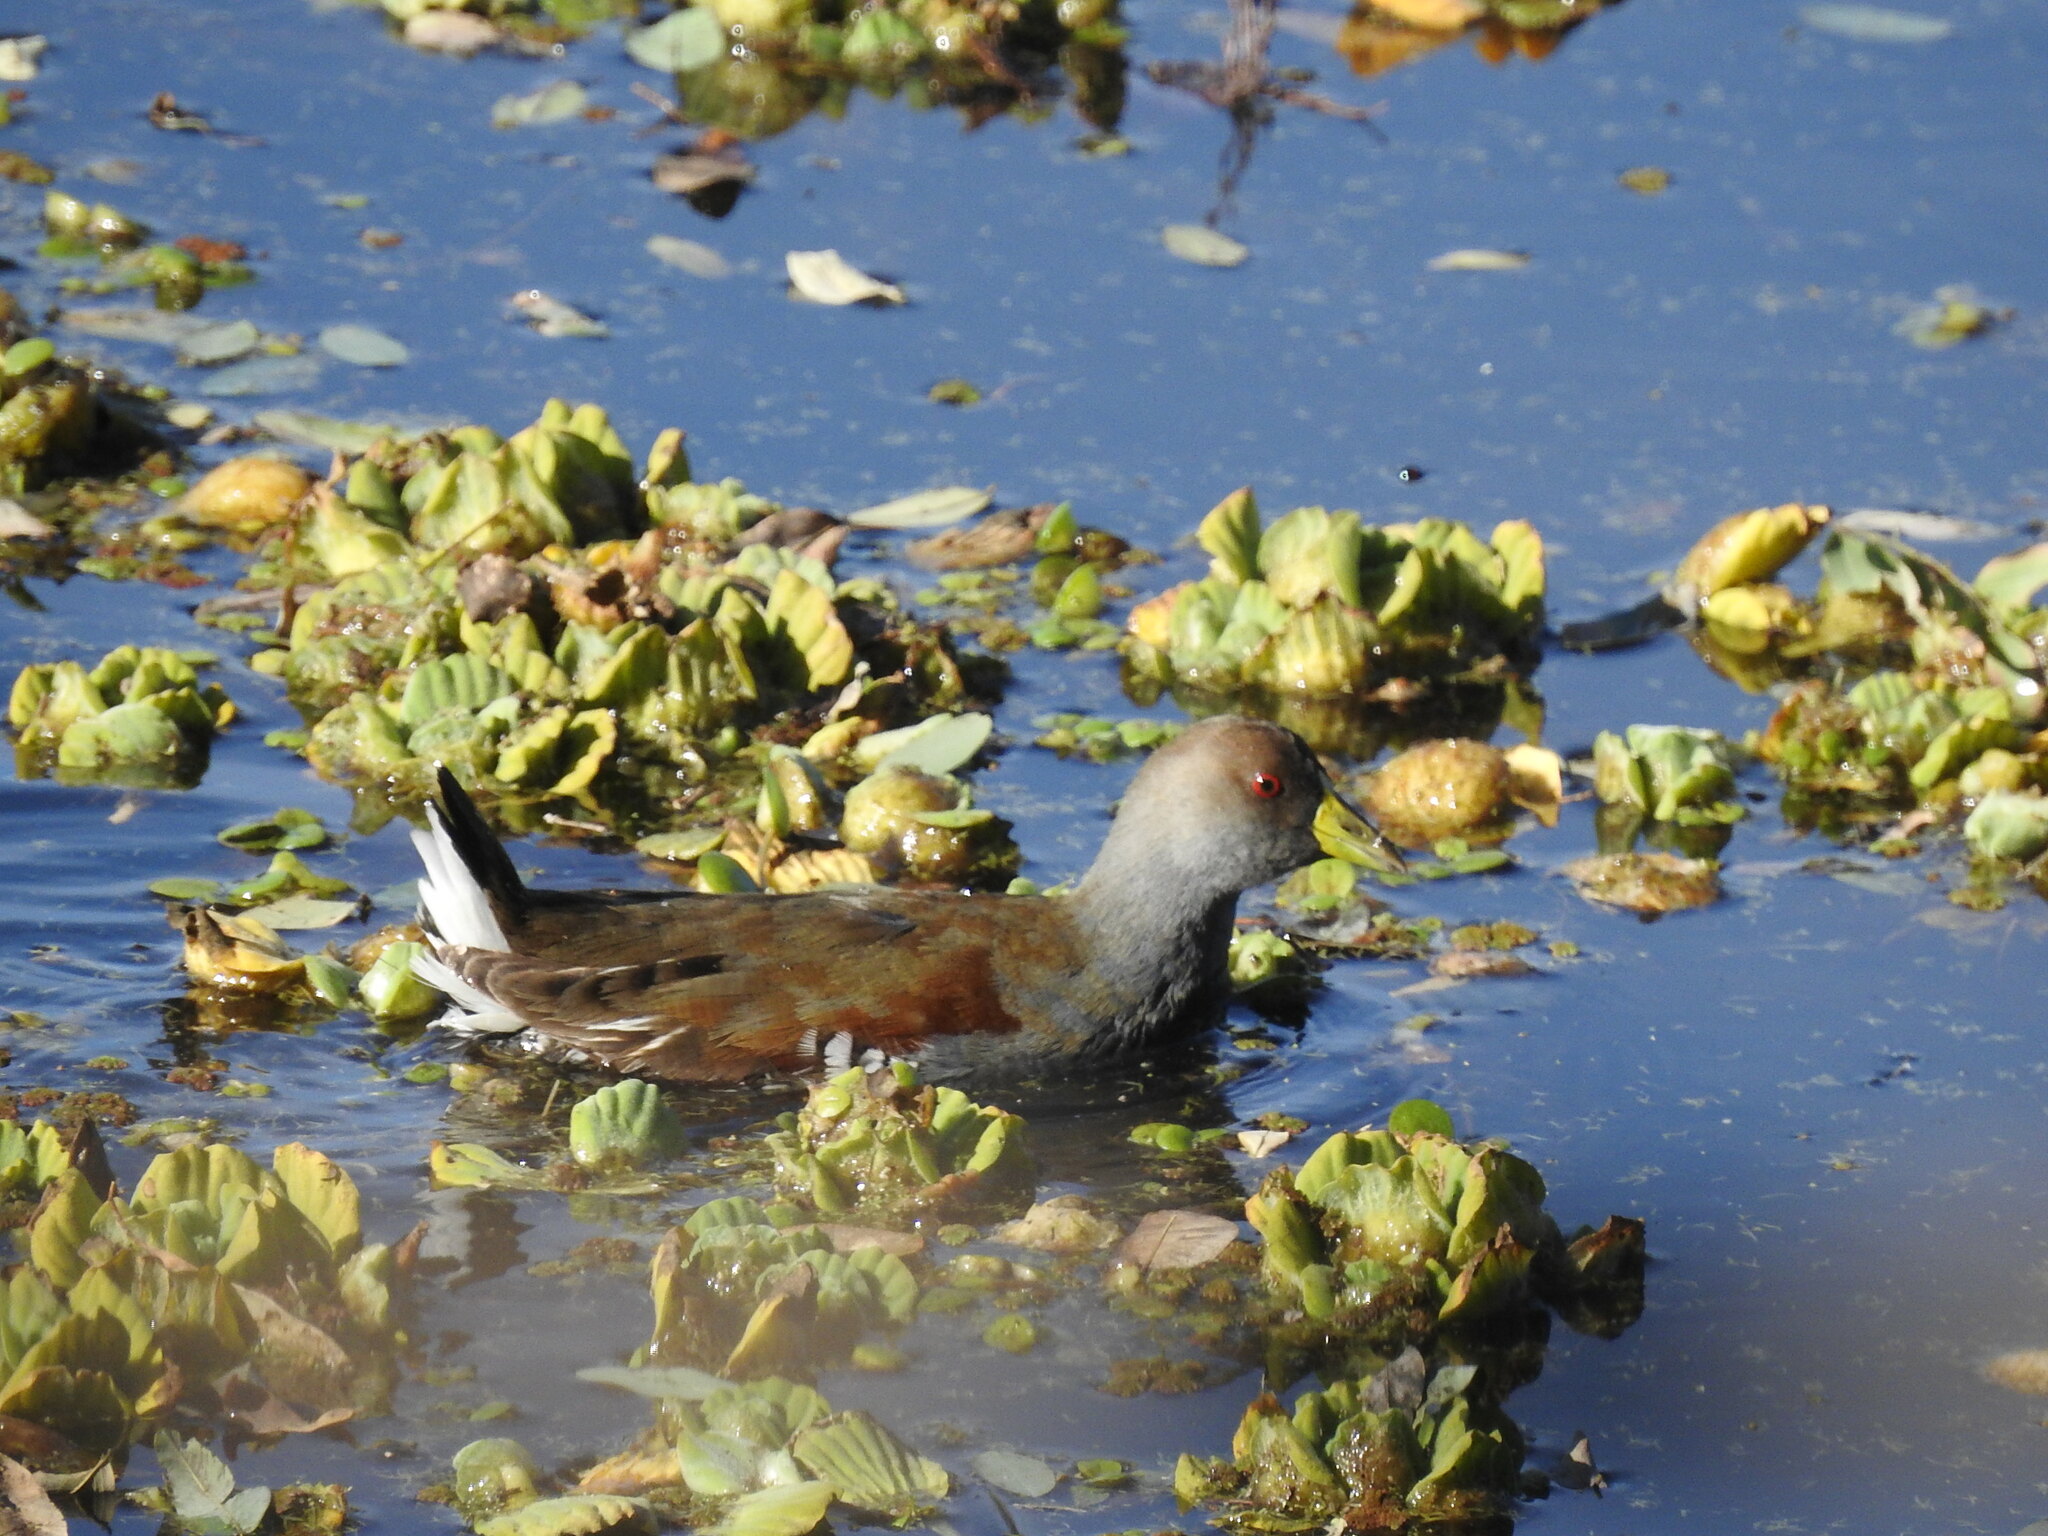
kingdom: Animalia
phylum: Chordata
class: Aves
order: Gruiformes
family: Rallidae
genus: Gallinula
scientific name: Gallinula melanops
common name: Spot-flanked gallinule
